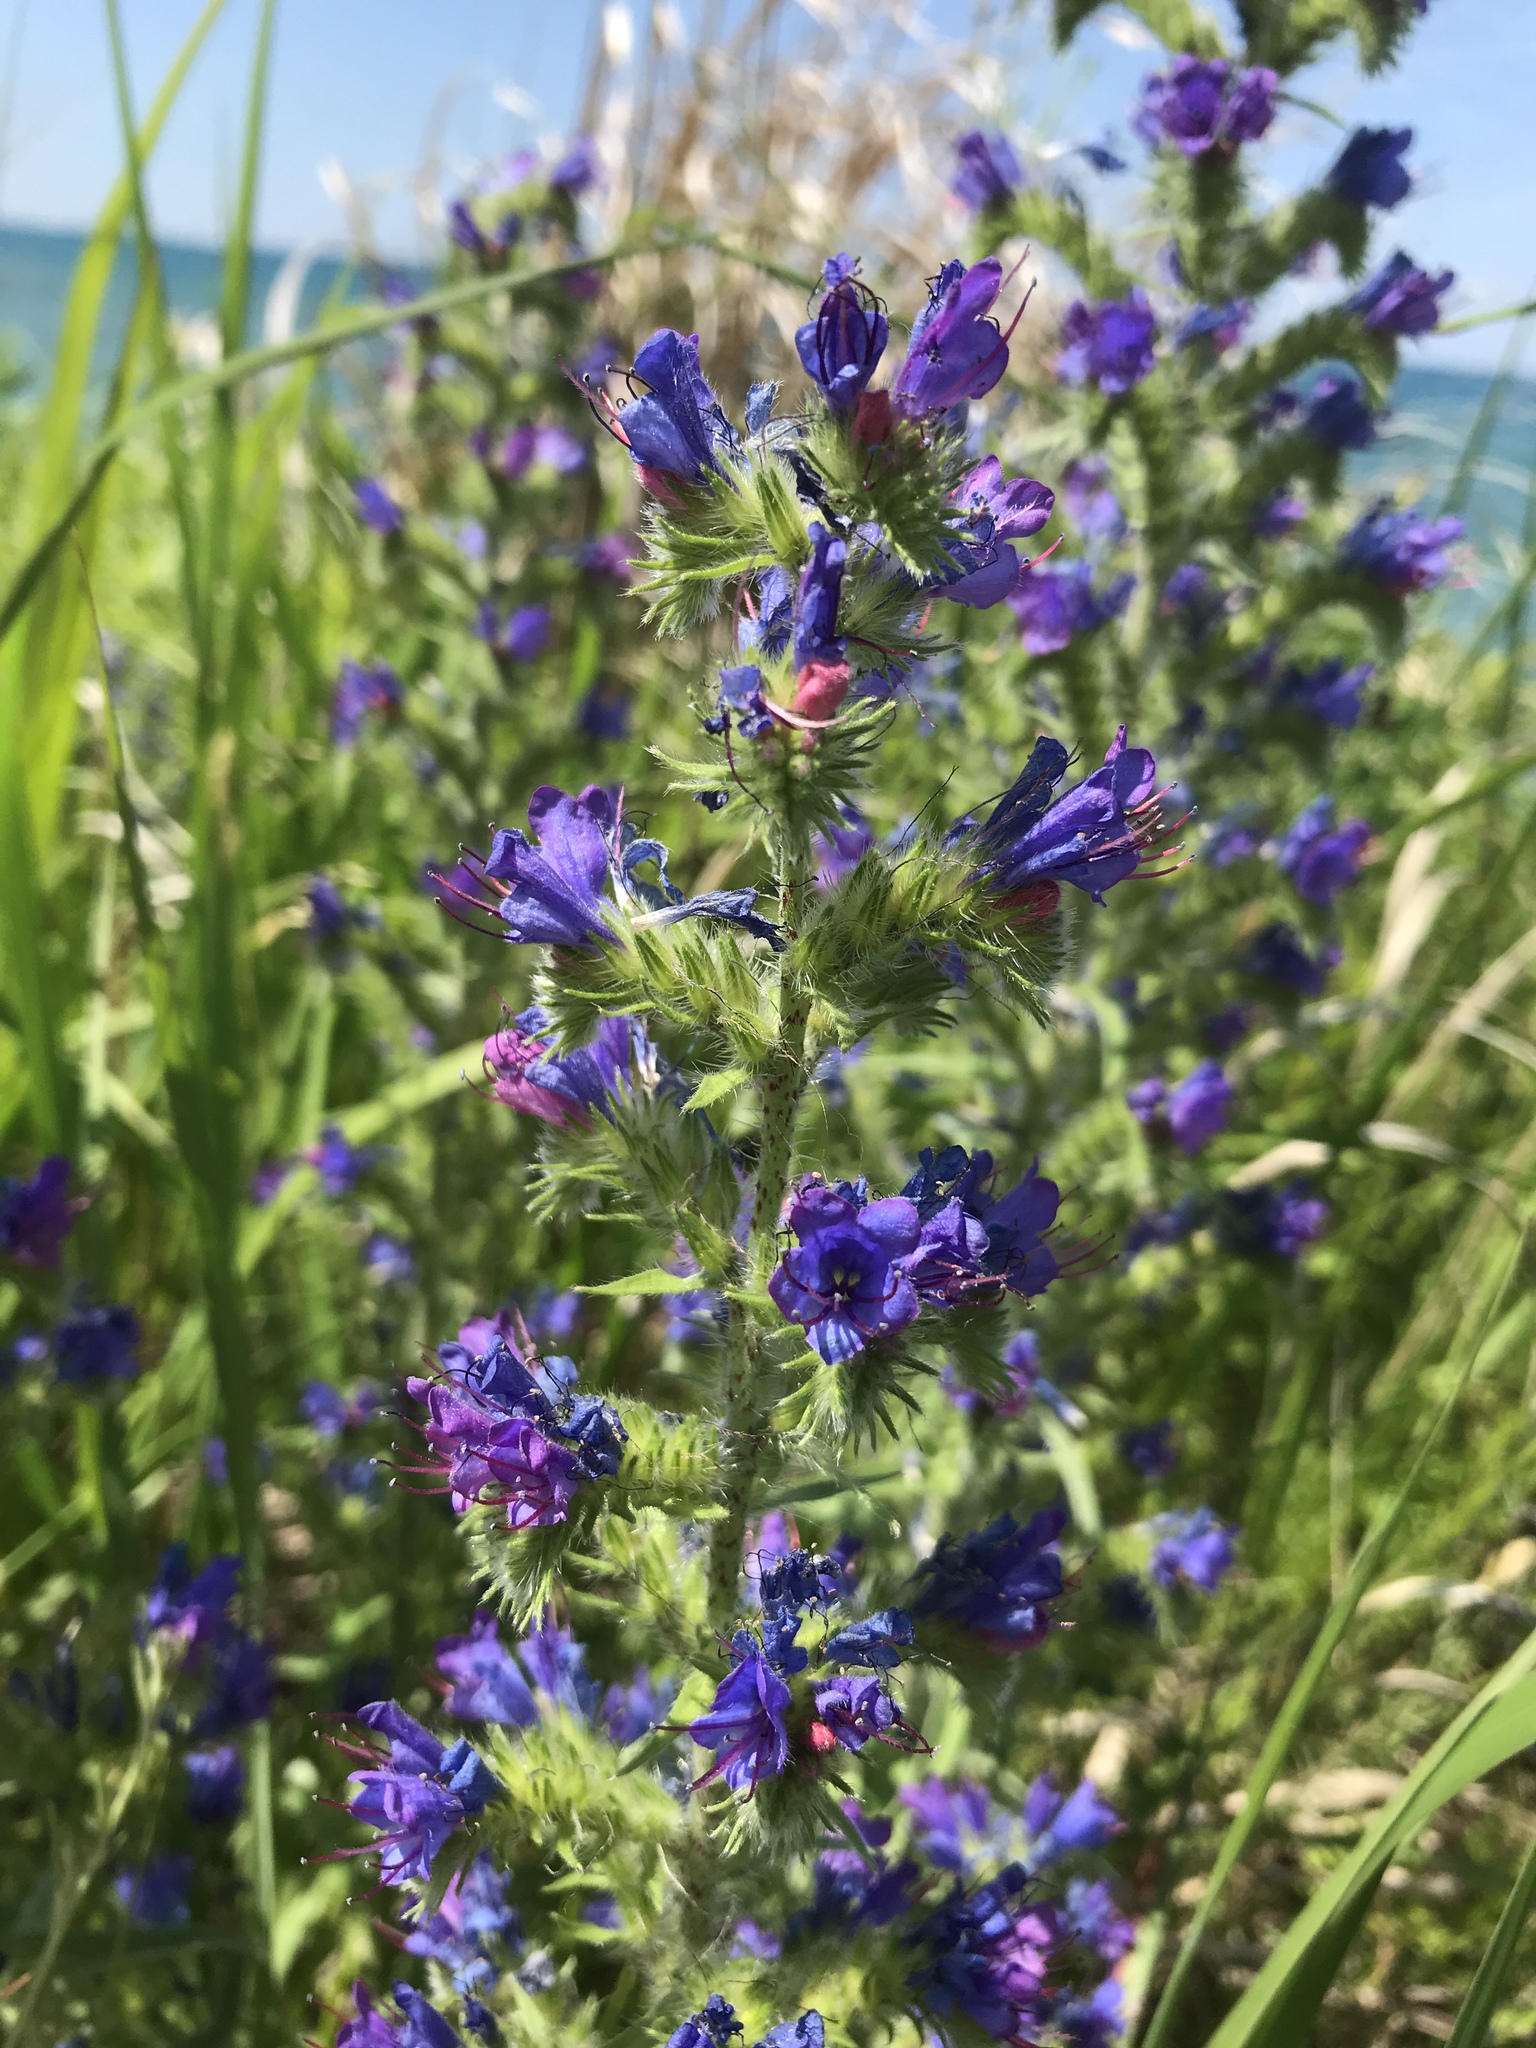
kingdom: Plantae
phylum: Tracheophyta
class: Magnoliopsida
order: Boraginales
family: Boraginaceae
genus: Echium
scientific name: Echium vulgare
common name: Common viper's bugloss
